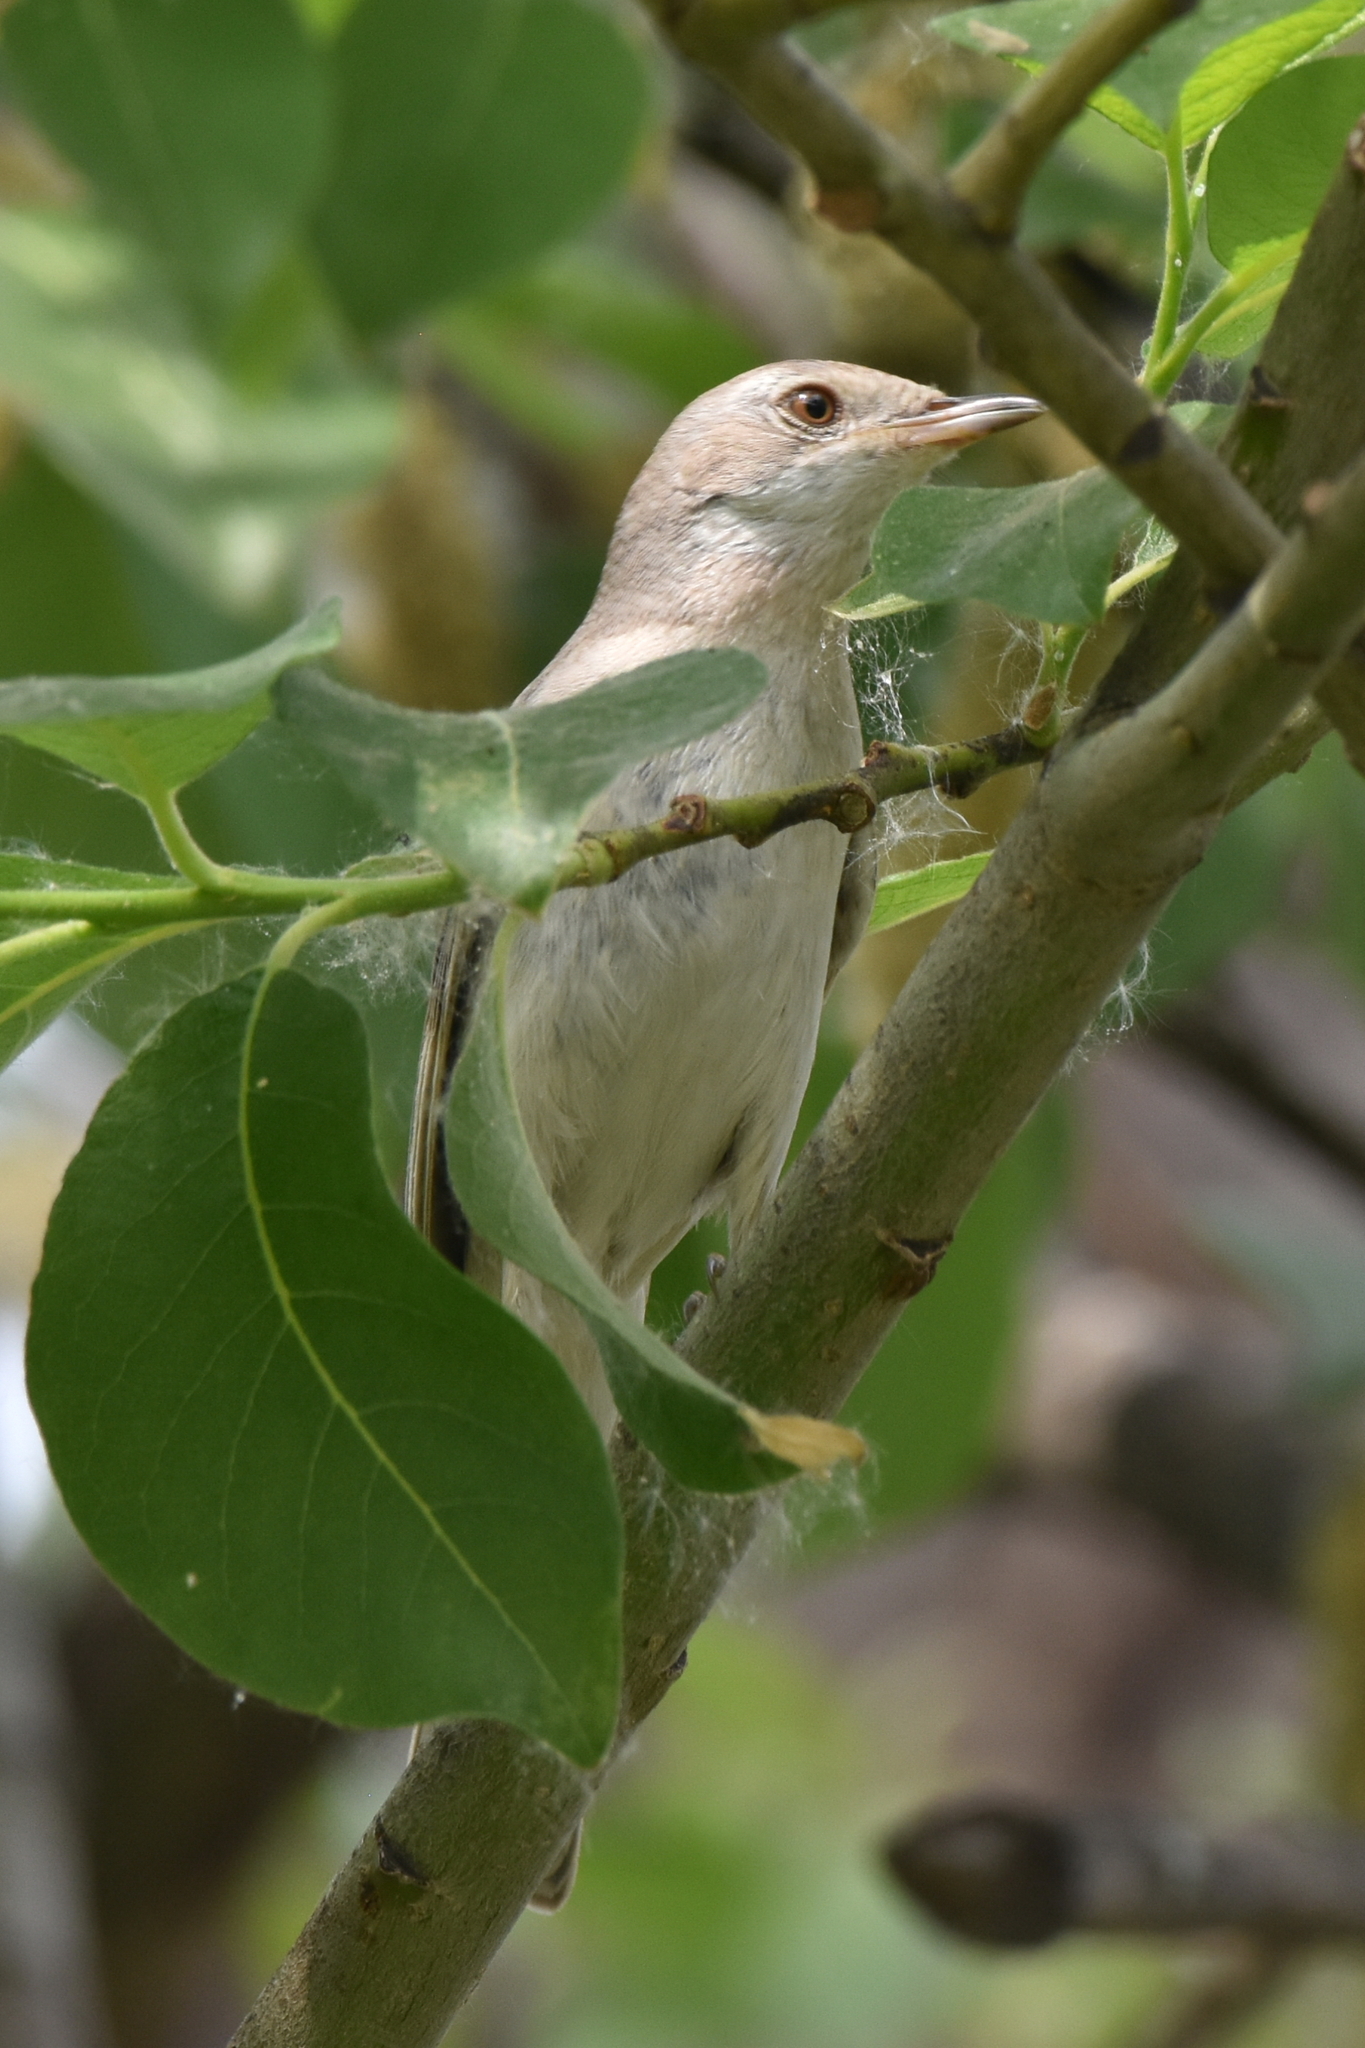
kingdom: Animalia
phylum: Chordata
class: Aves
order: Passeriformes
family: Sylviidae
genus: Sylvia
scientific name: Sylvia communis
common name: Common whitethroat
